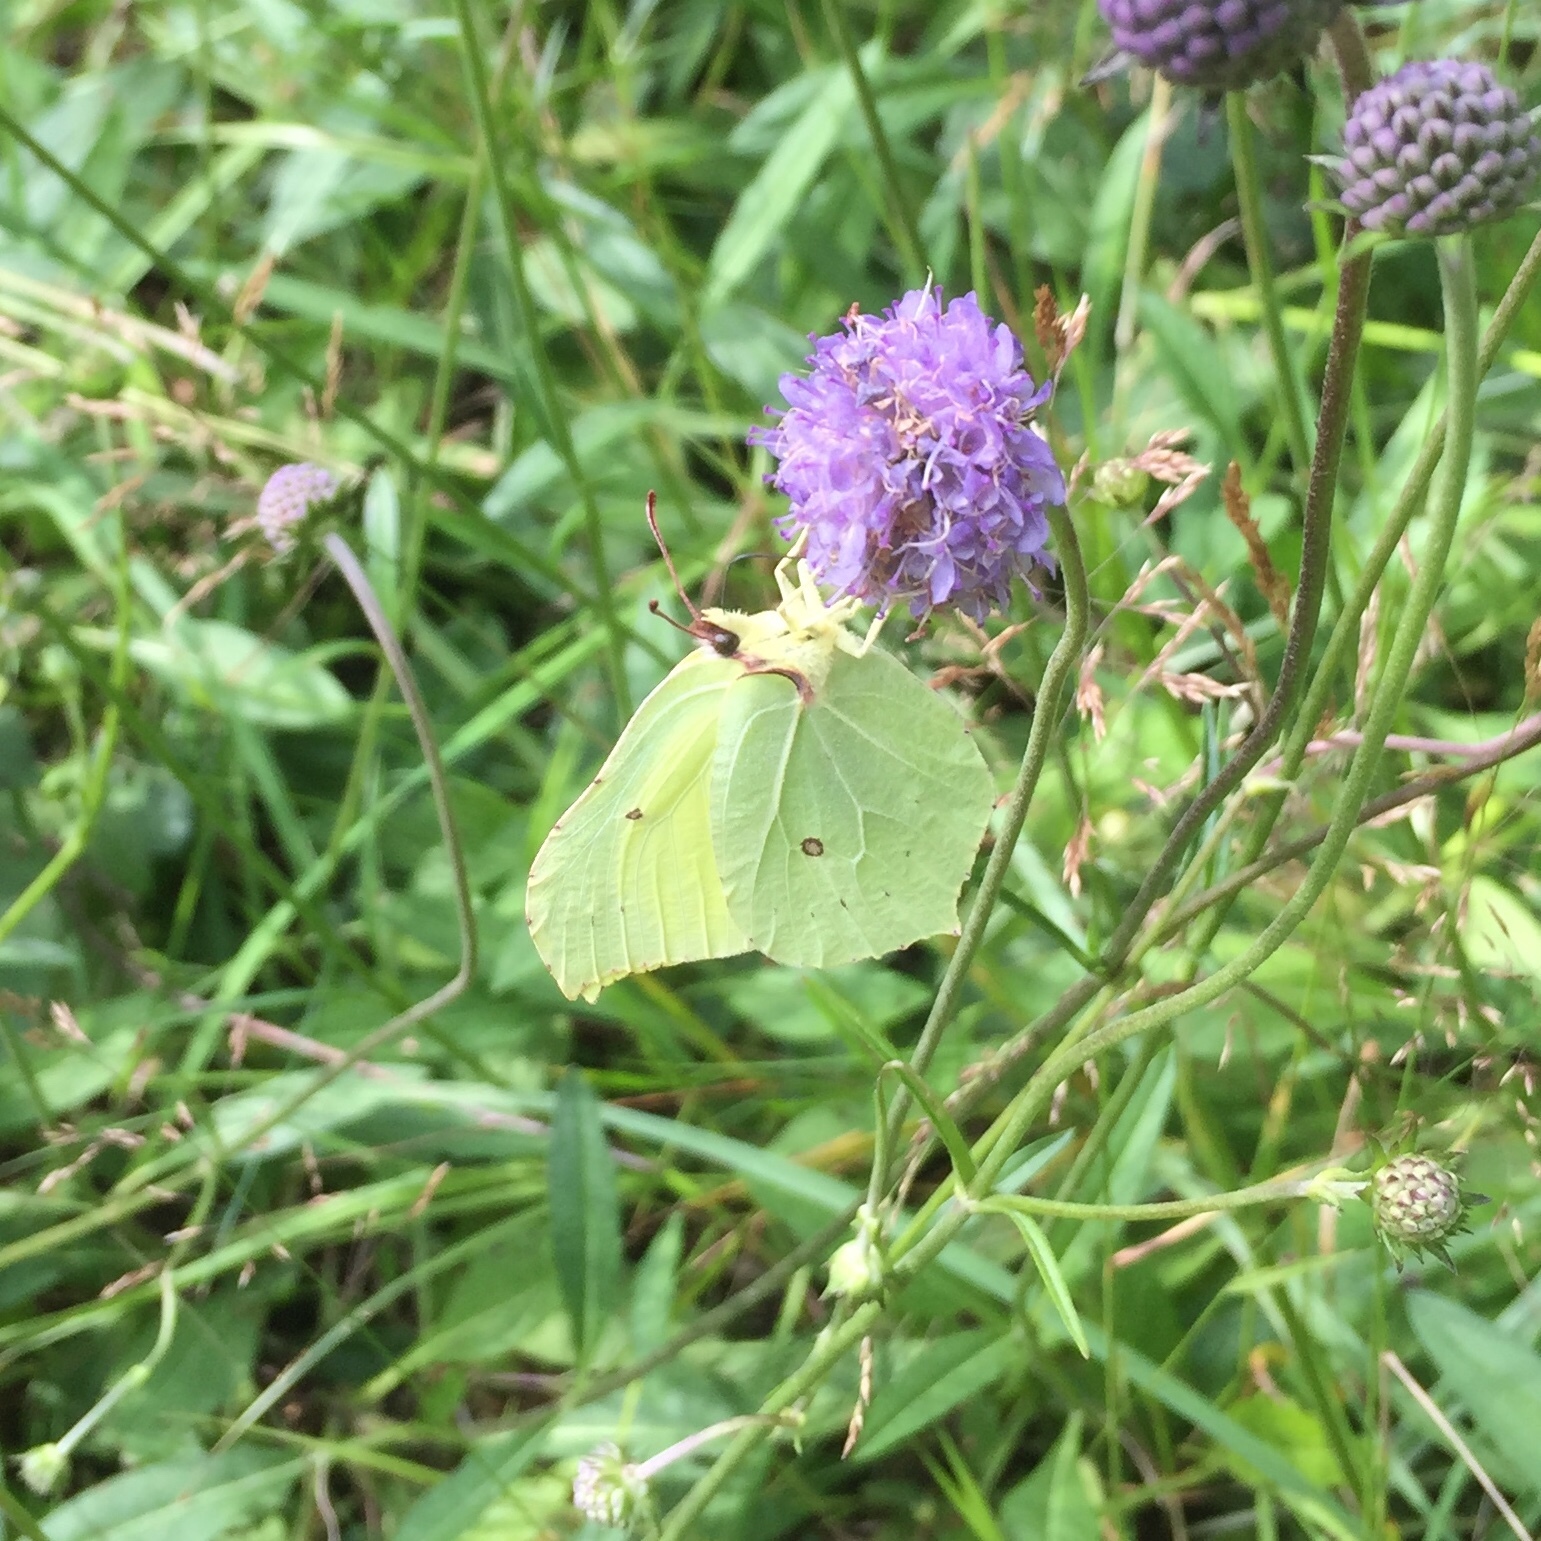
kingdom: Animalia
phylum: Arthropoda
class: Insecta
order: Lepidoptera
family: Pieridae
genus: Gonepteryx
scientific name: Gonepteryx rhamni
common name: Brimstone
